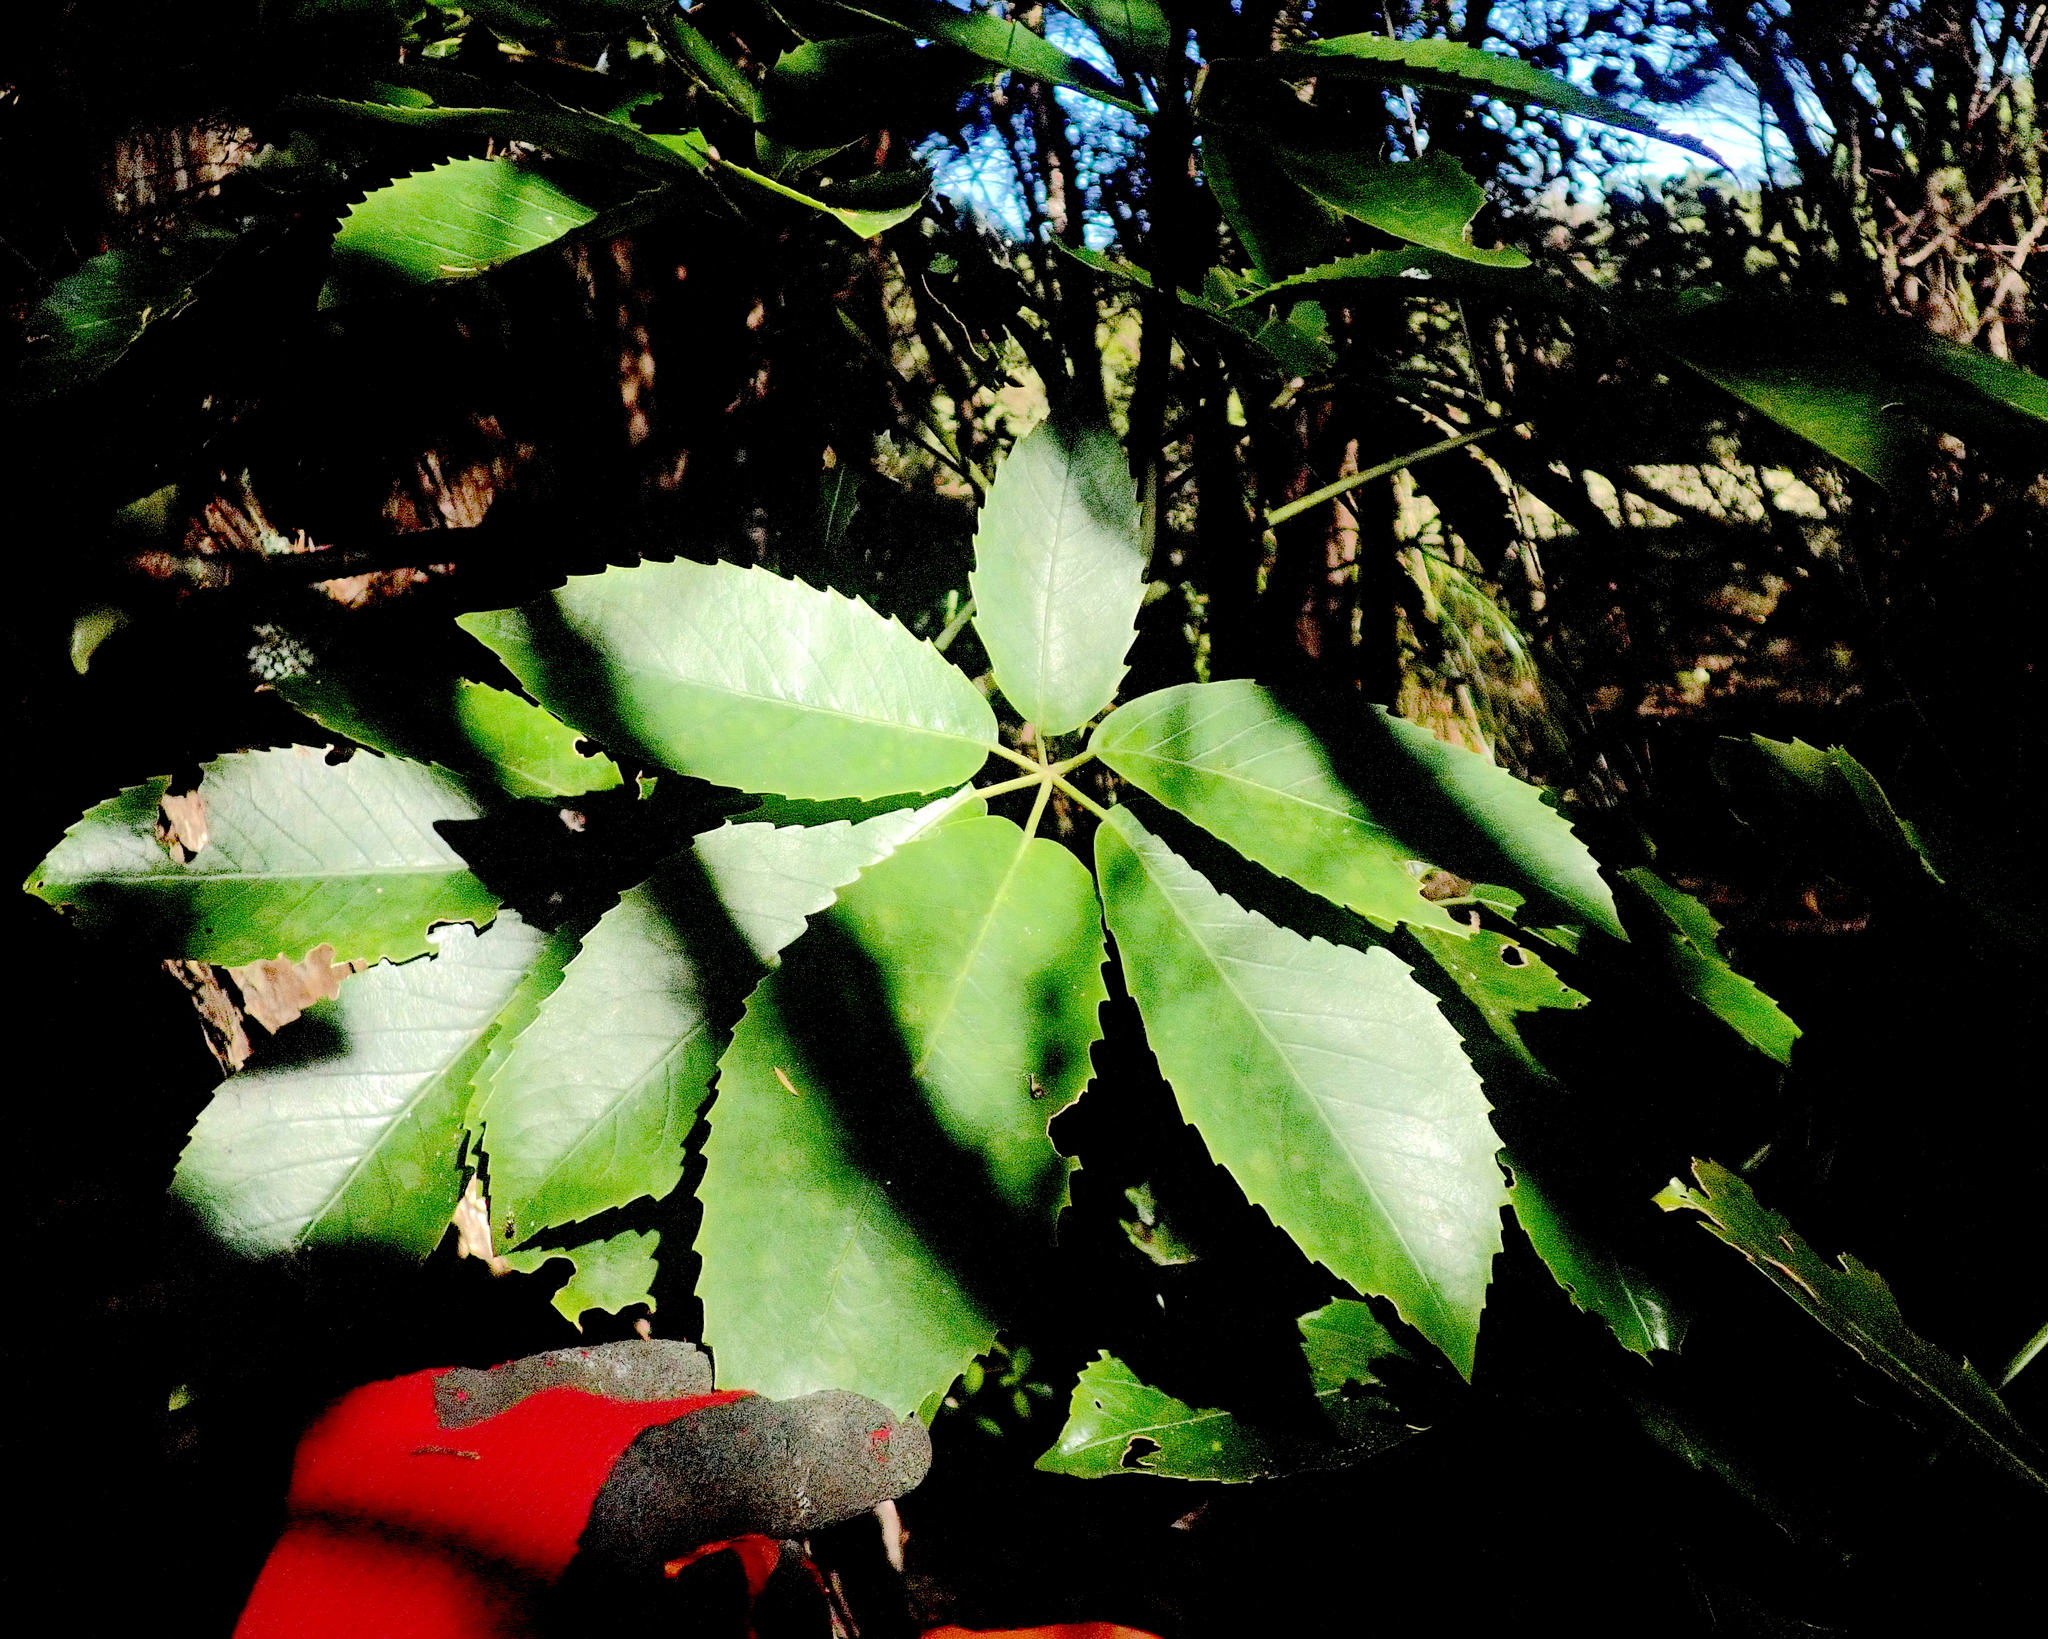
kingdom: Plantae
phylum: Tracheophyta
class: Magnoliopsida
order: Apiales
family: Araliaceae
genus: Neopanax
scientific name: Neopanax arboreus
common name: Five-fingers
